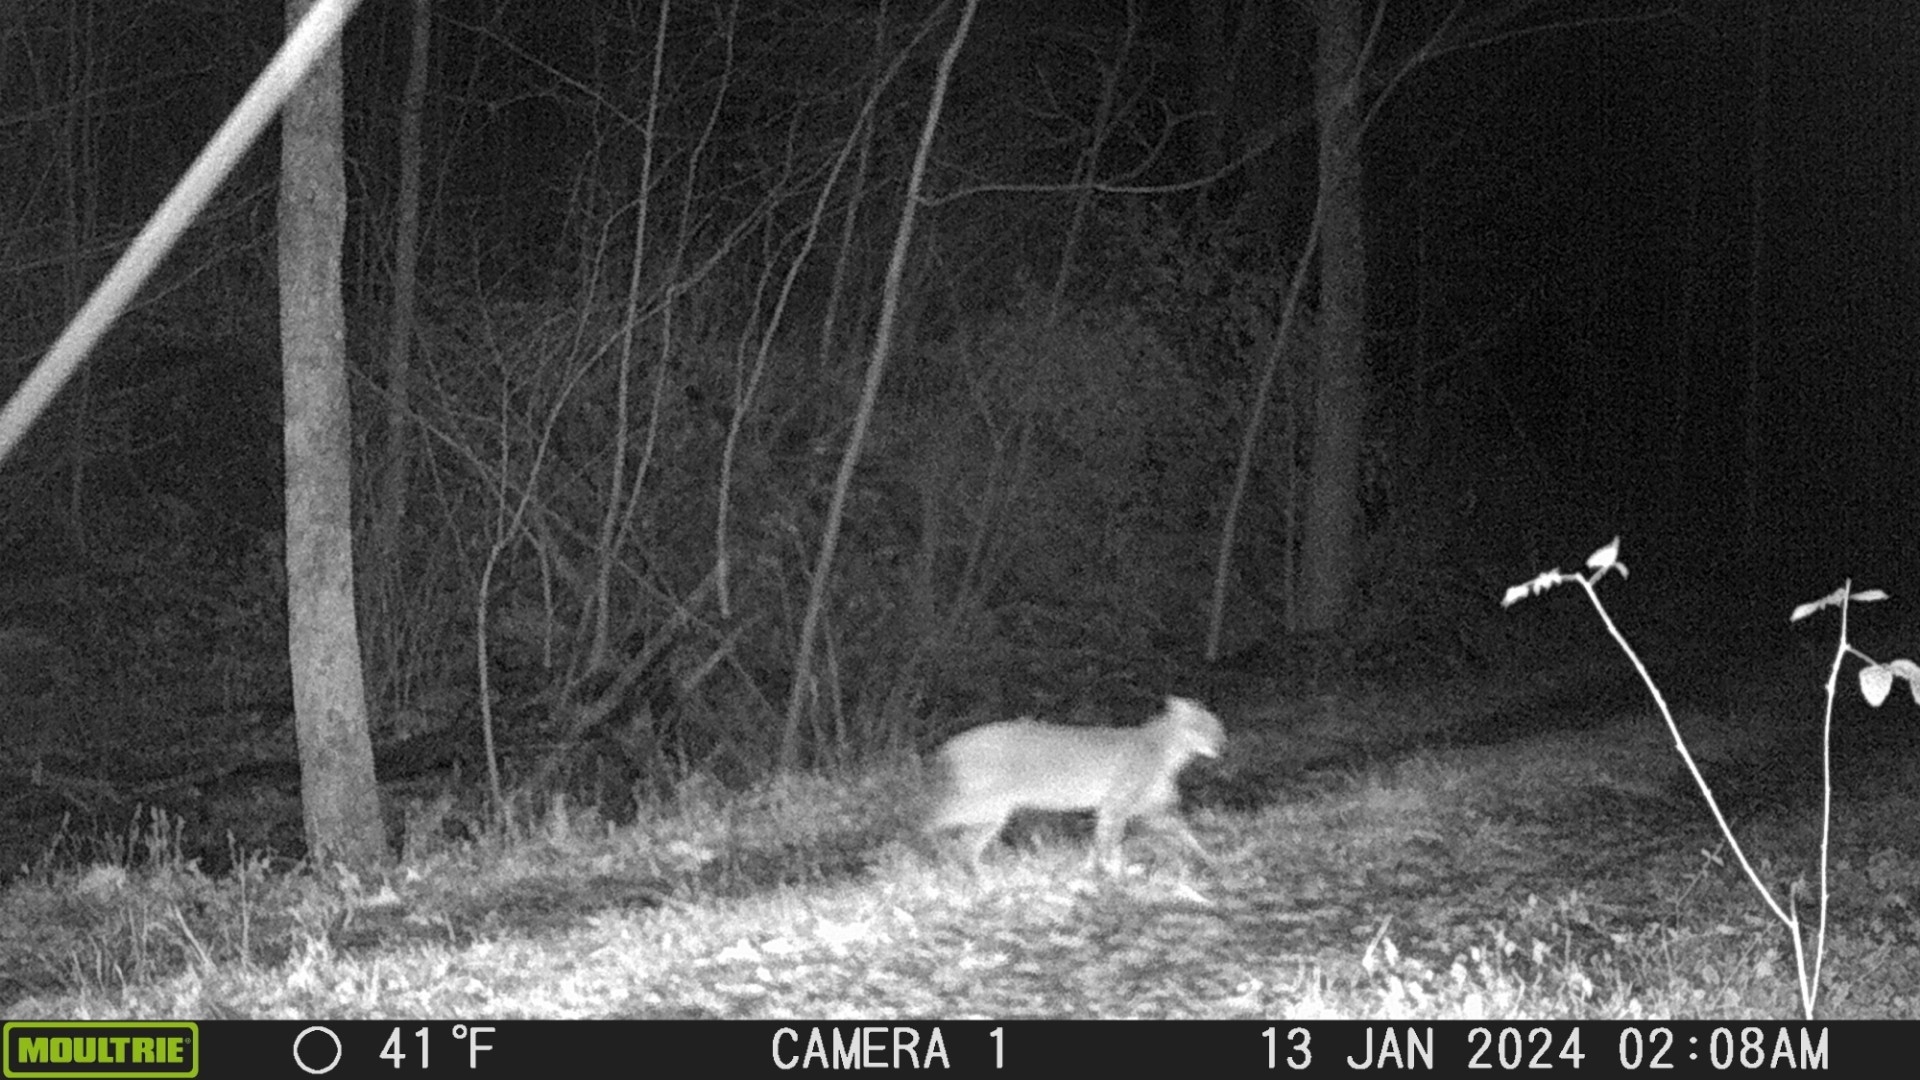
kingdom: Animalia
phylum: Chordata
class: Mammalia
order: Carnivora
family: Felidae
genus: Lynx
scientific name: Lynx rufus
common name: Bobcat
